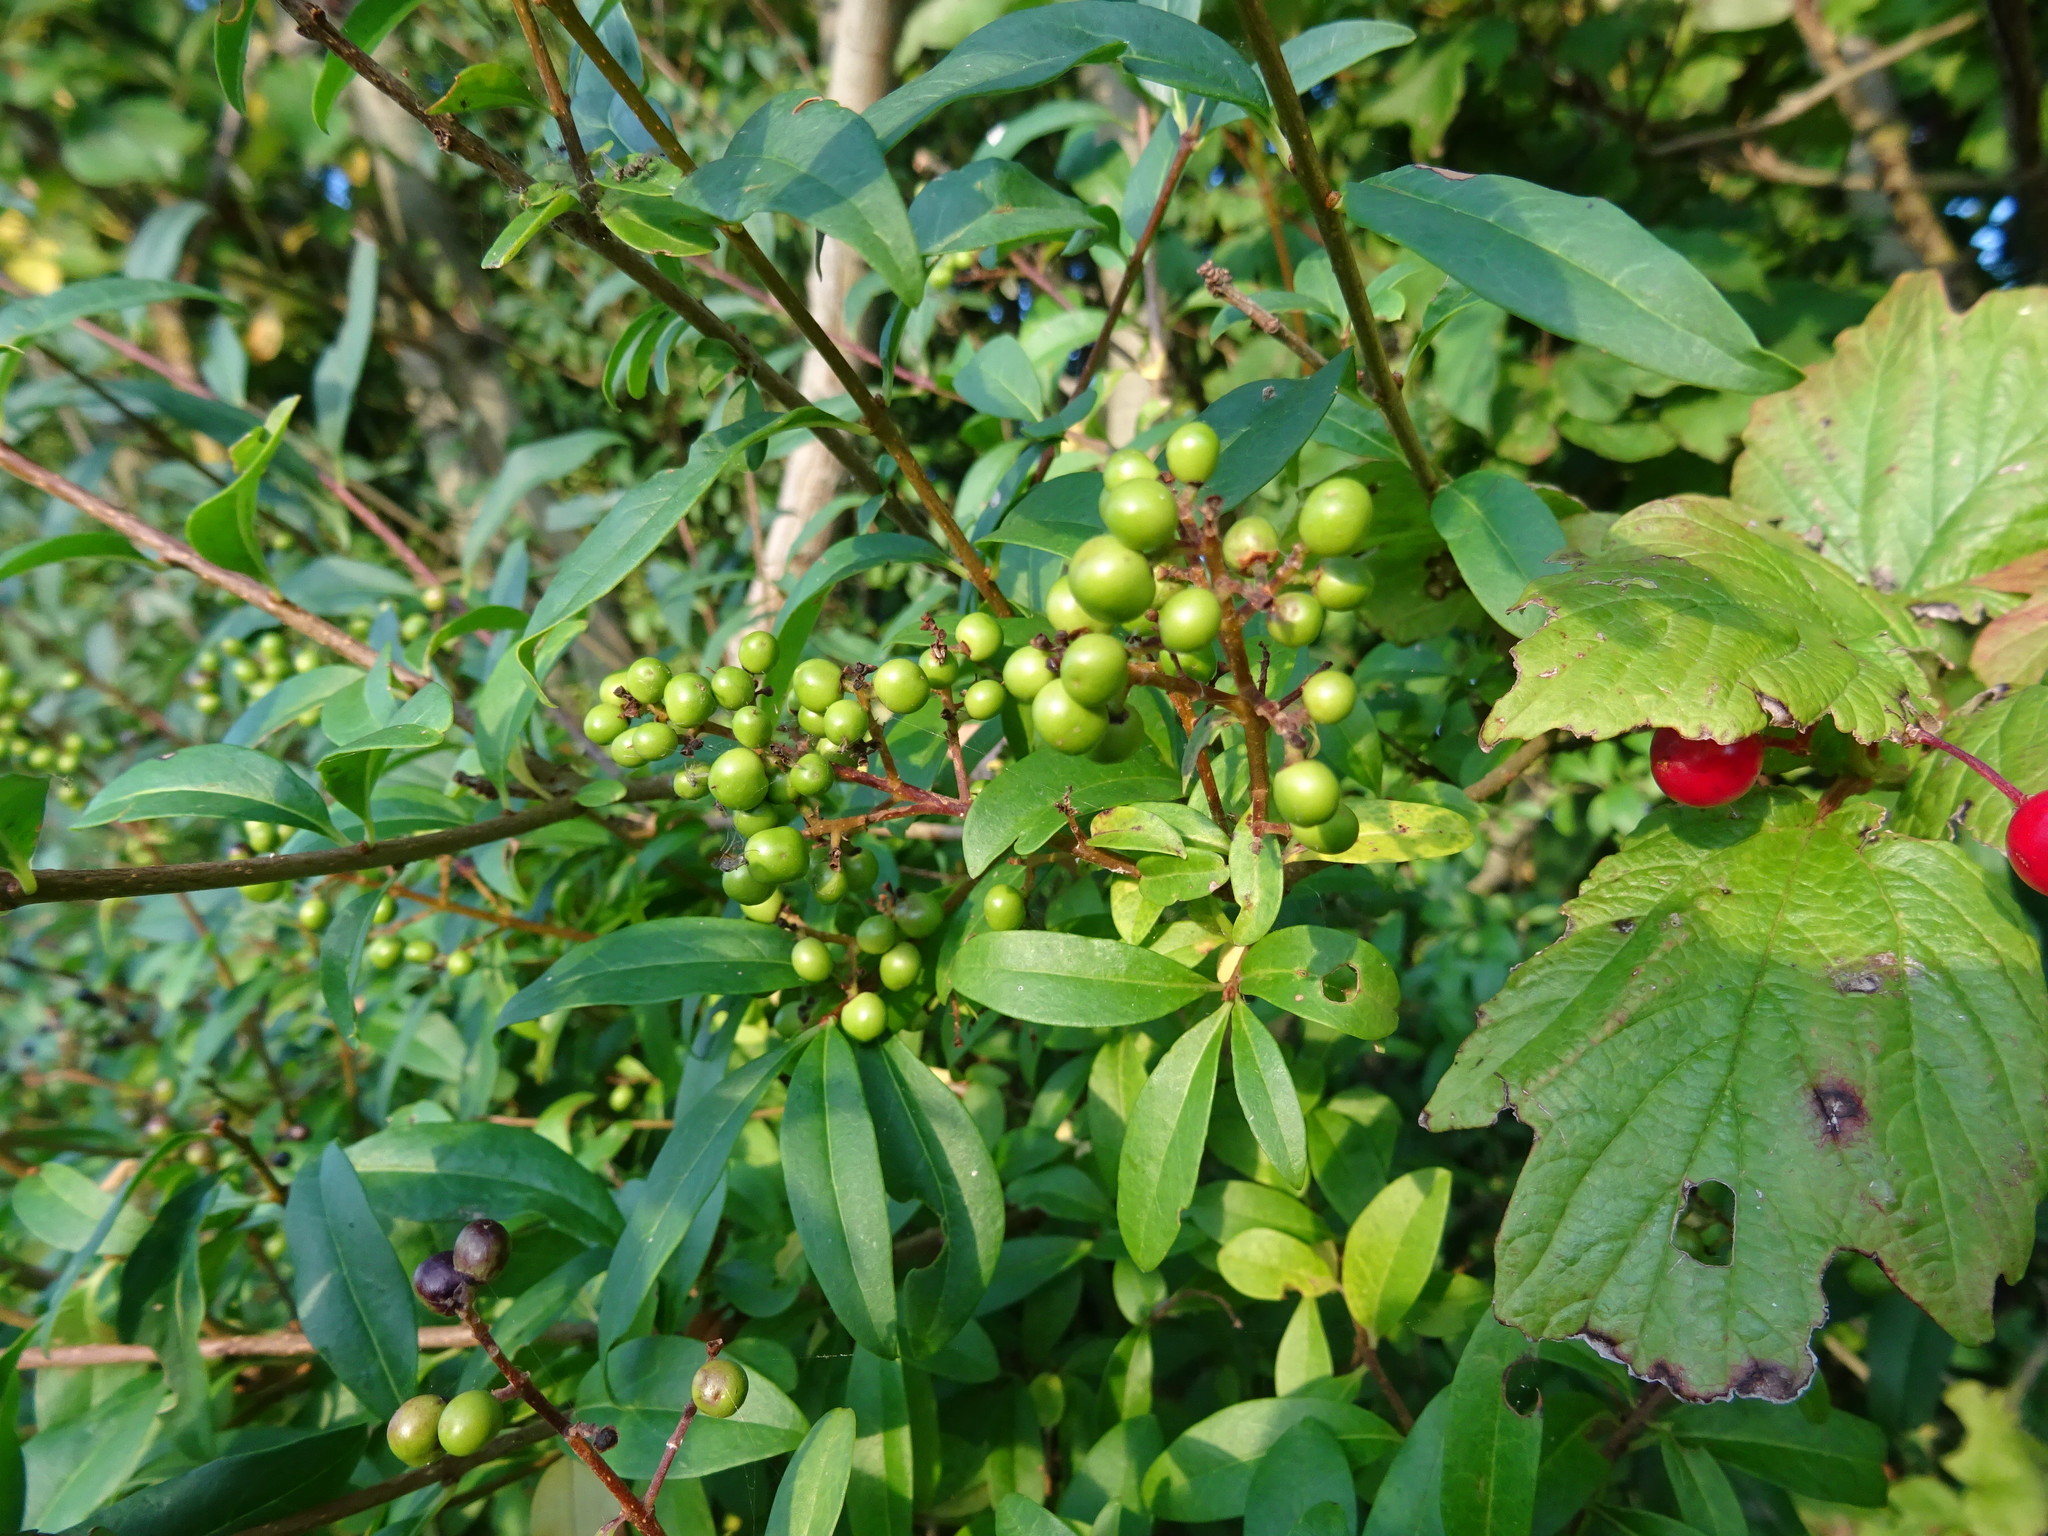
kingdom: Plantae
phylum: Tracheophyta
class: Magnoliopsida
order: Lamiales
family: Oleaceae
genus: Ligustrum
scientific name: Ligustrum vulgare
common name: Wild privet
